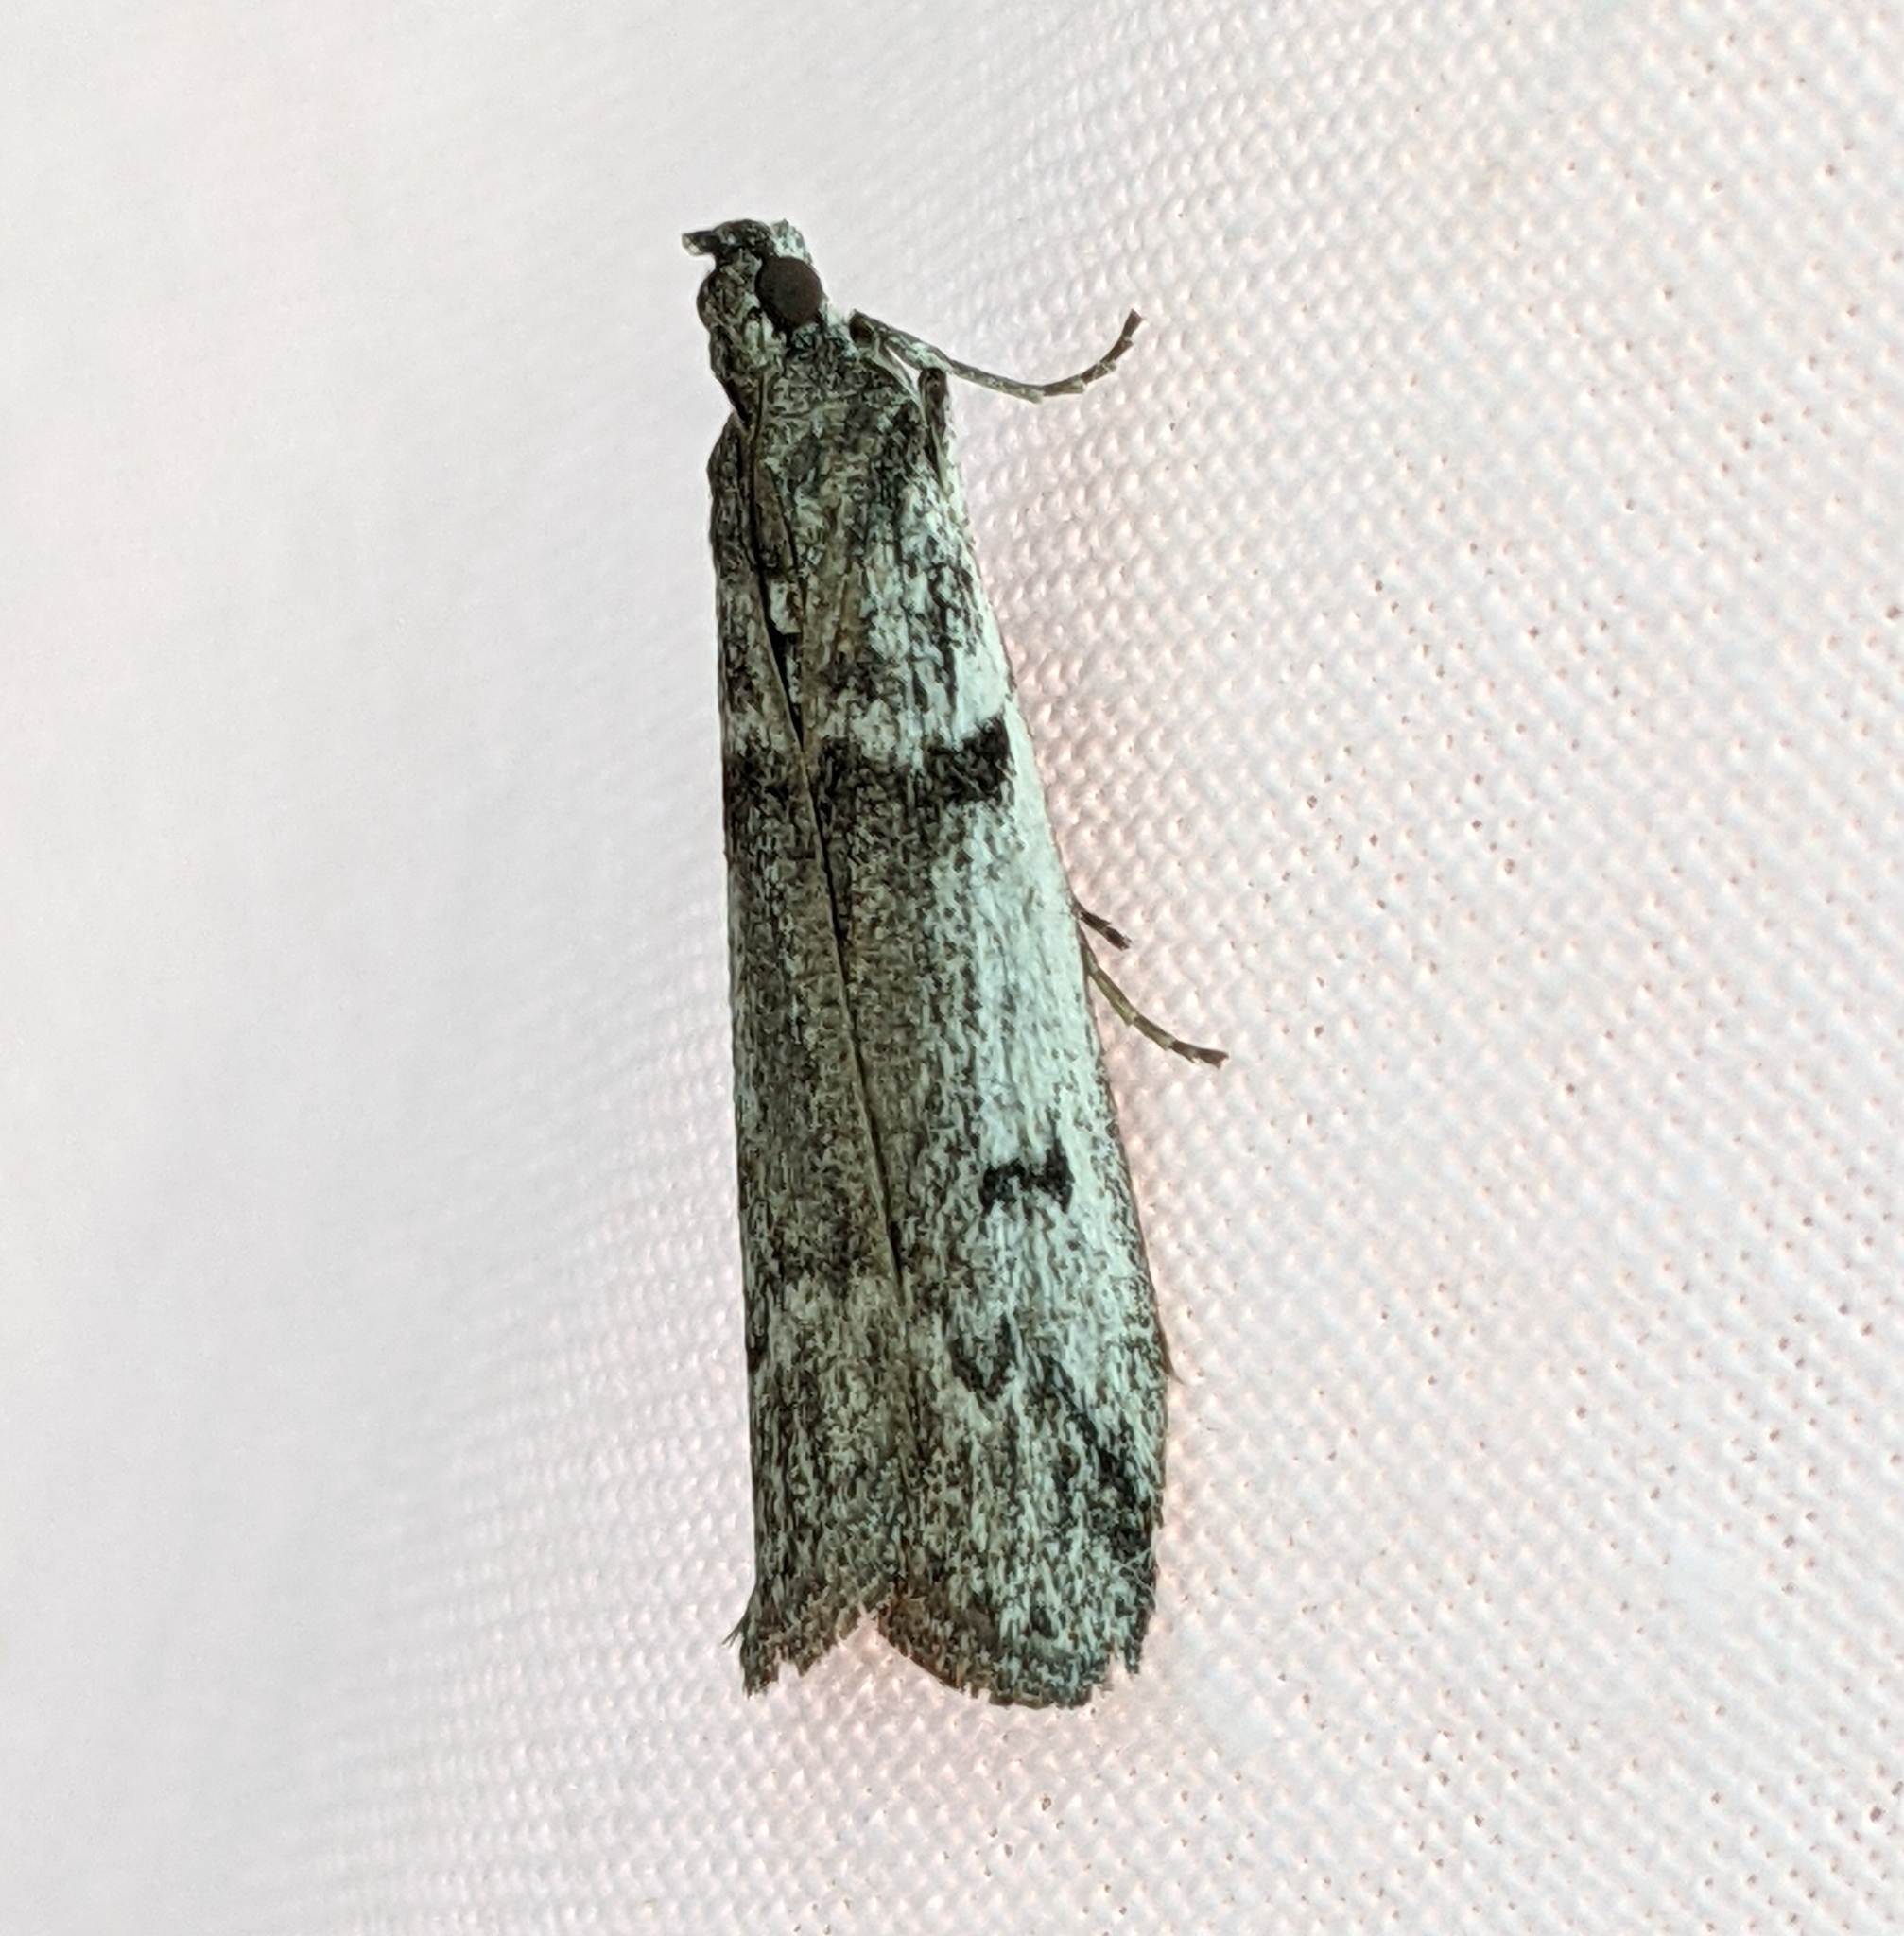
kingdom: Animalia
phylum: Arthropoda
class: Insecta
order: Lepidoptera
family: Pyralidae
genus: Zophodia
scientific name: Zophodia convolutella
